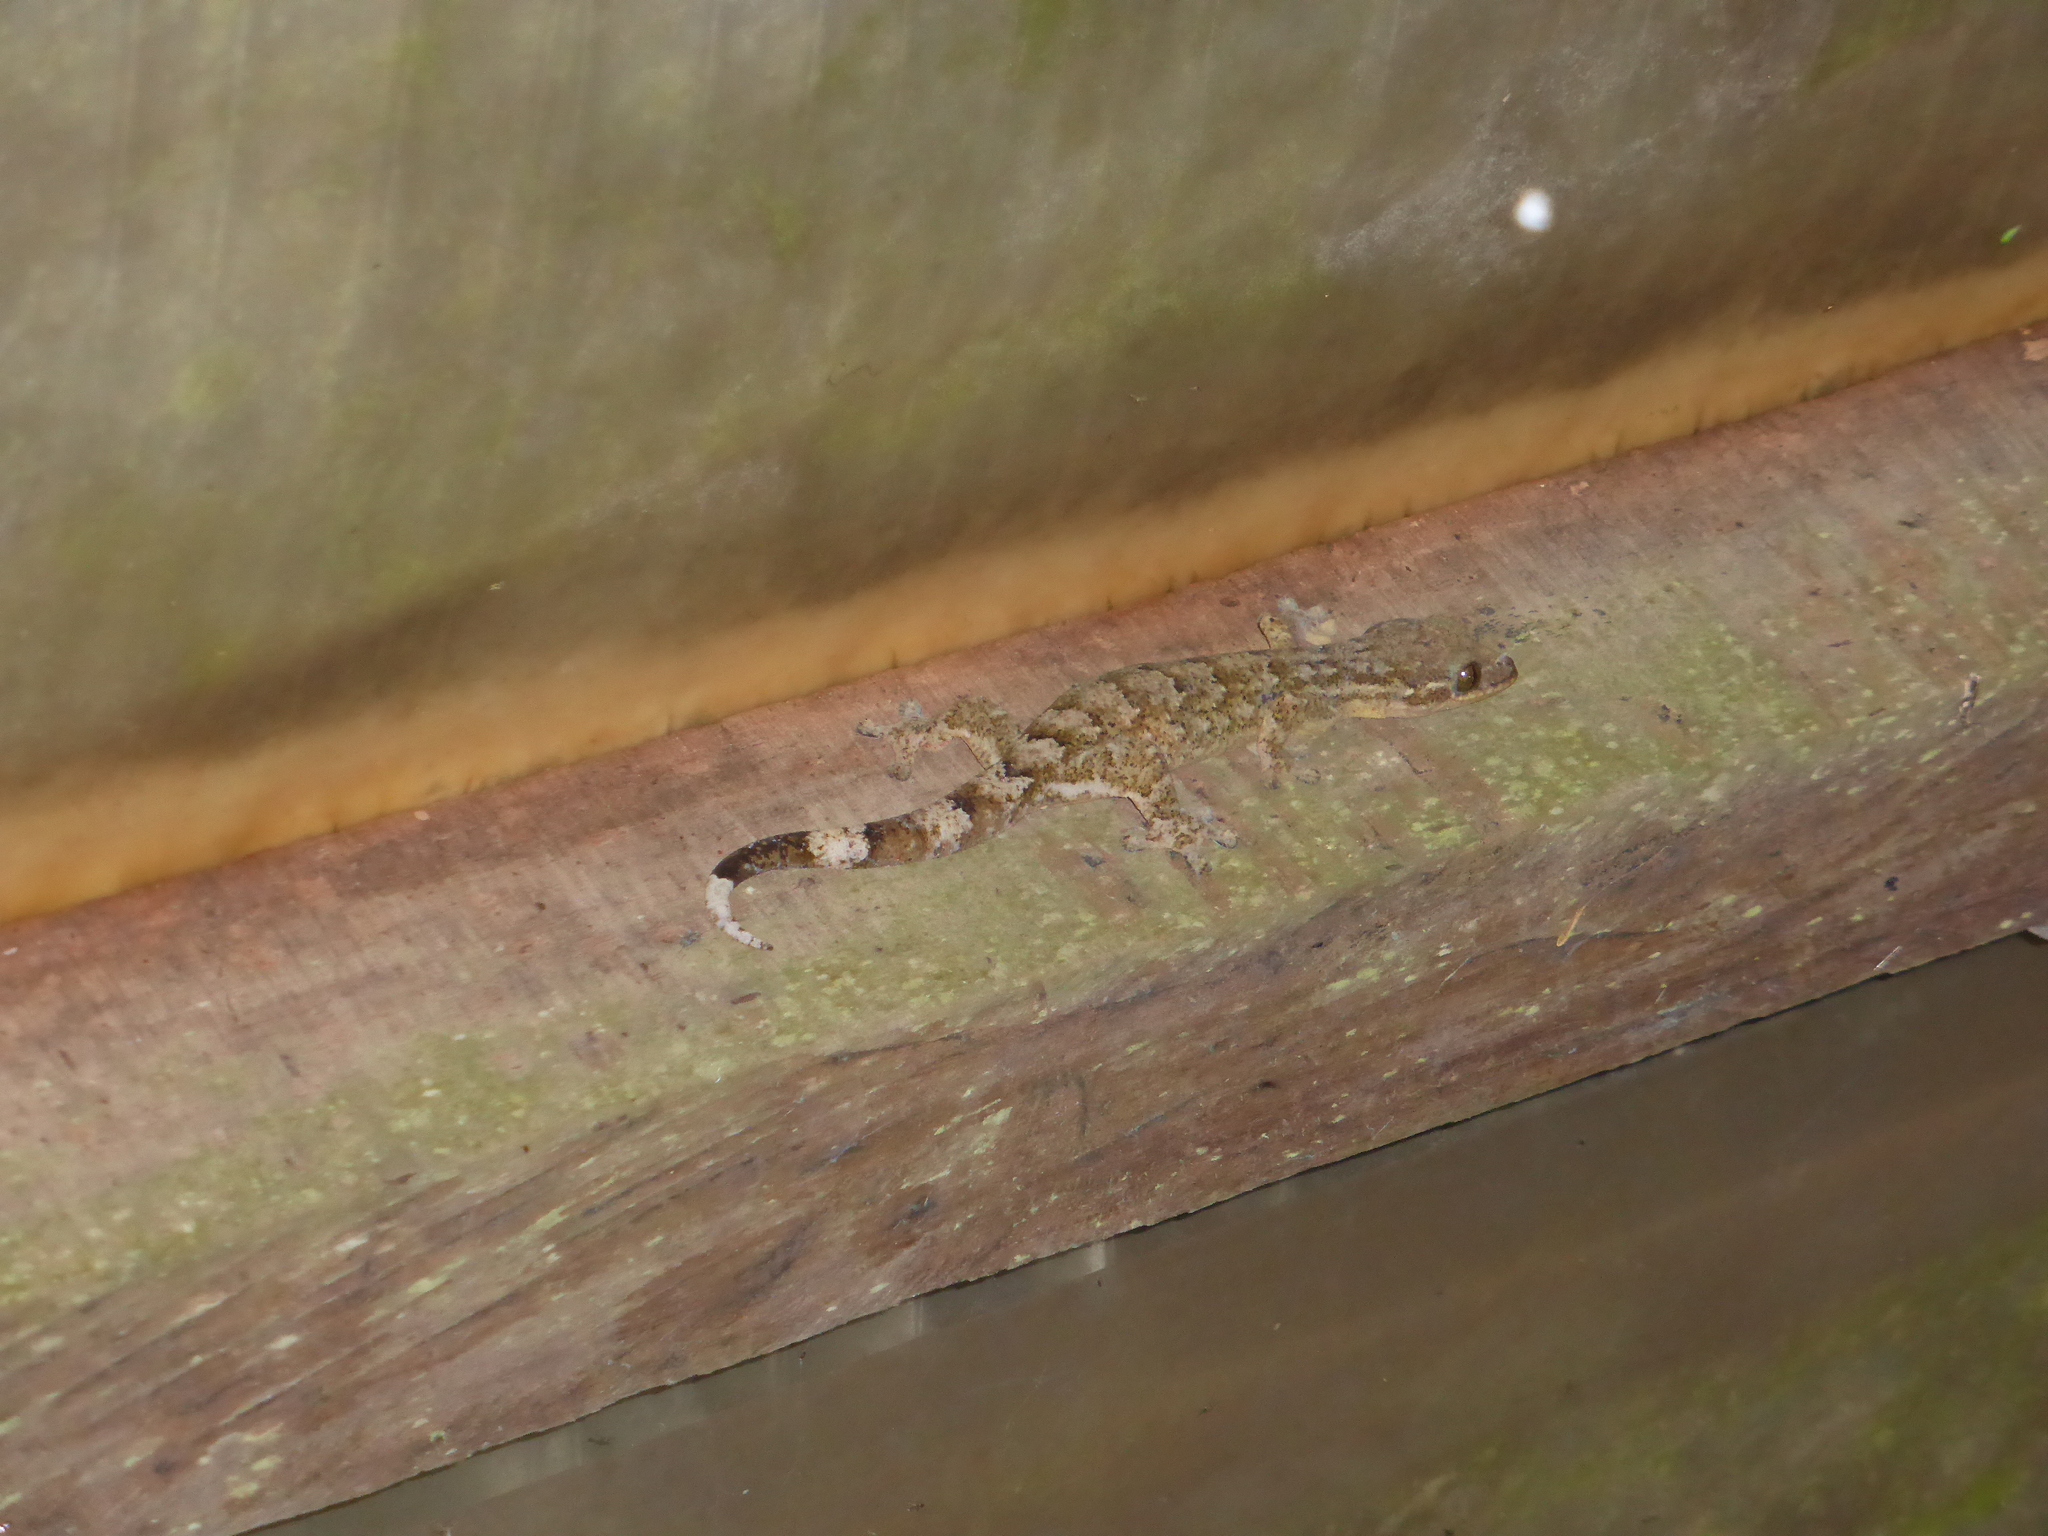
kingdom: Animalia
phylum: Chordata
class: Squamata
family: Phyllodactylidae
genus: Thecadactylus
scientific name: Thecadactylus rapicauda
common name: Turnip-tailed gecko
